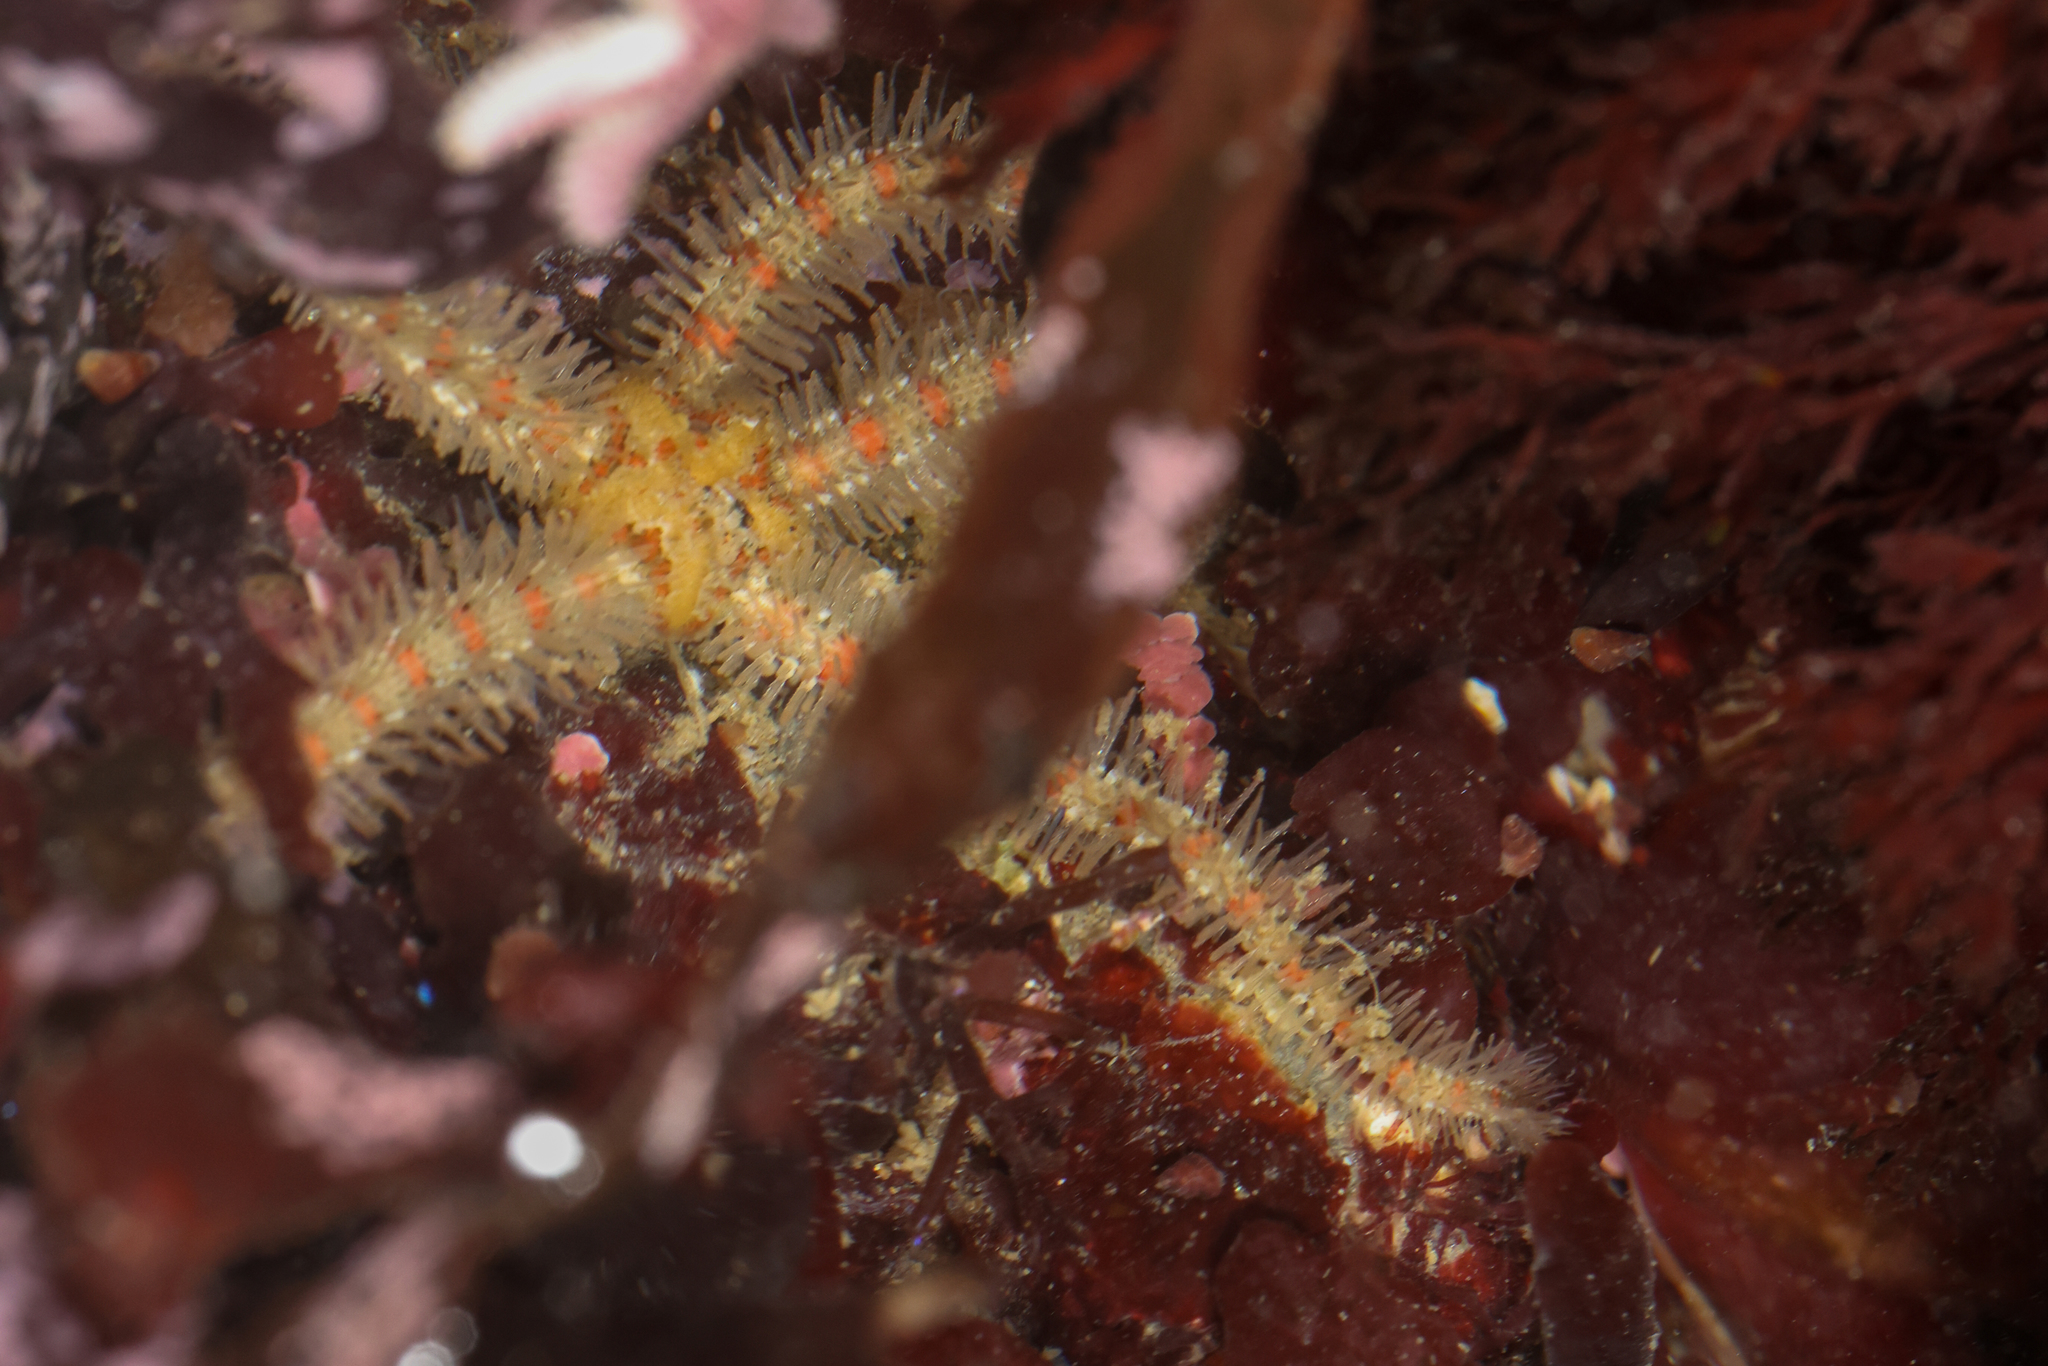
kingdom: Animalia
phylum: Echinodermata
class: Ophiuroidea
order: Amphilepidida
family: Ophiotrichidae
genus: Ophiothrix
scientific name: Ophiothrix spiculata
